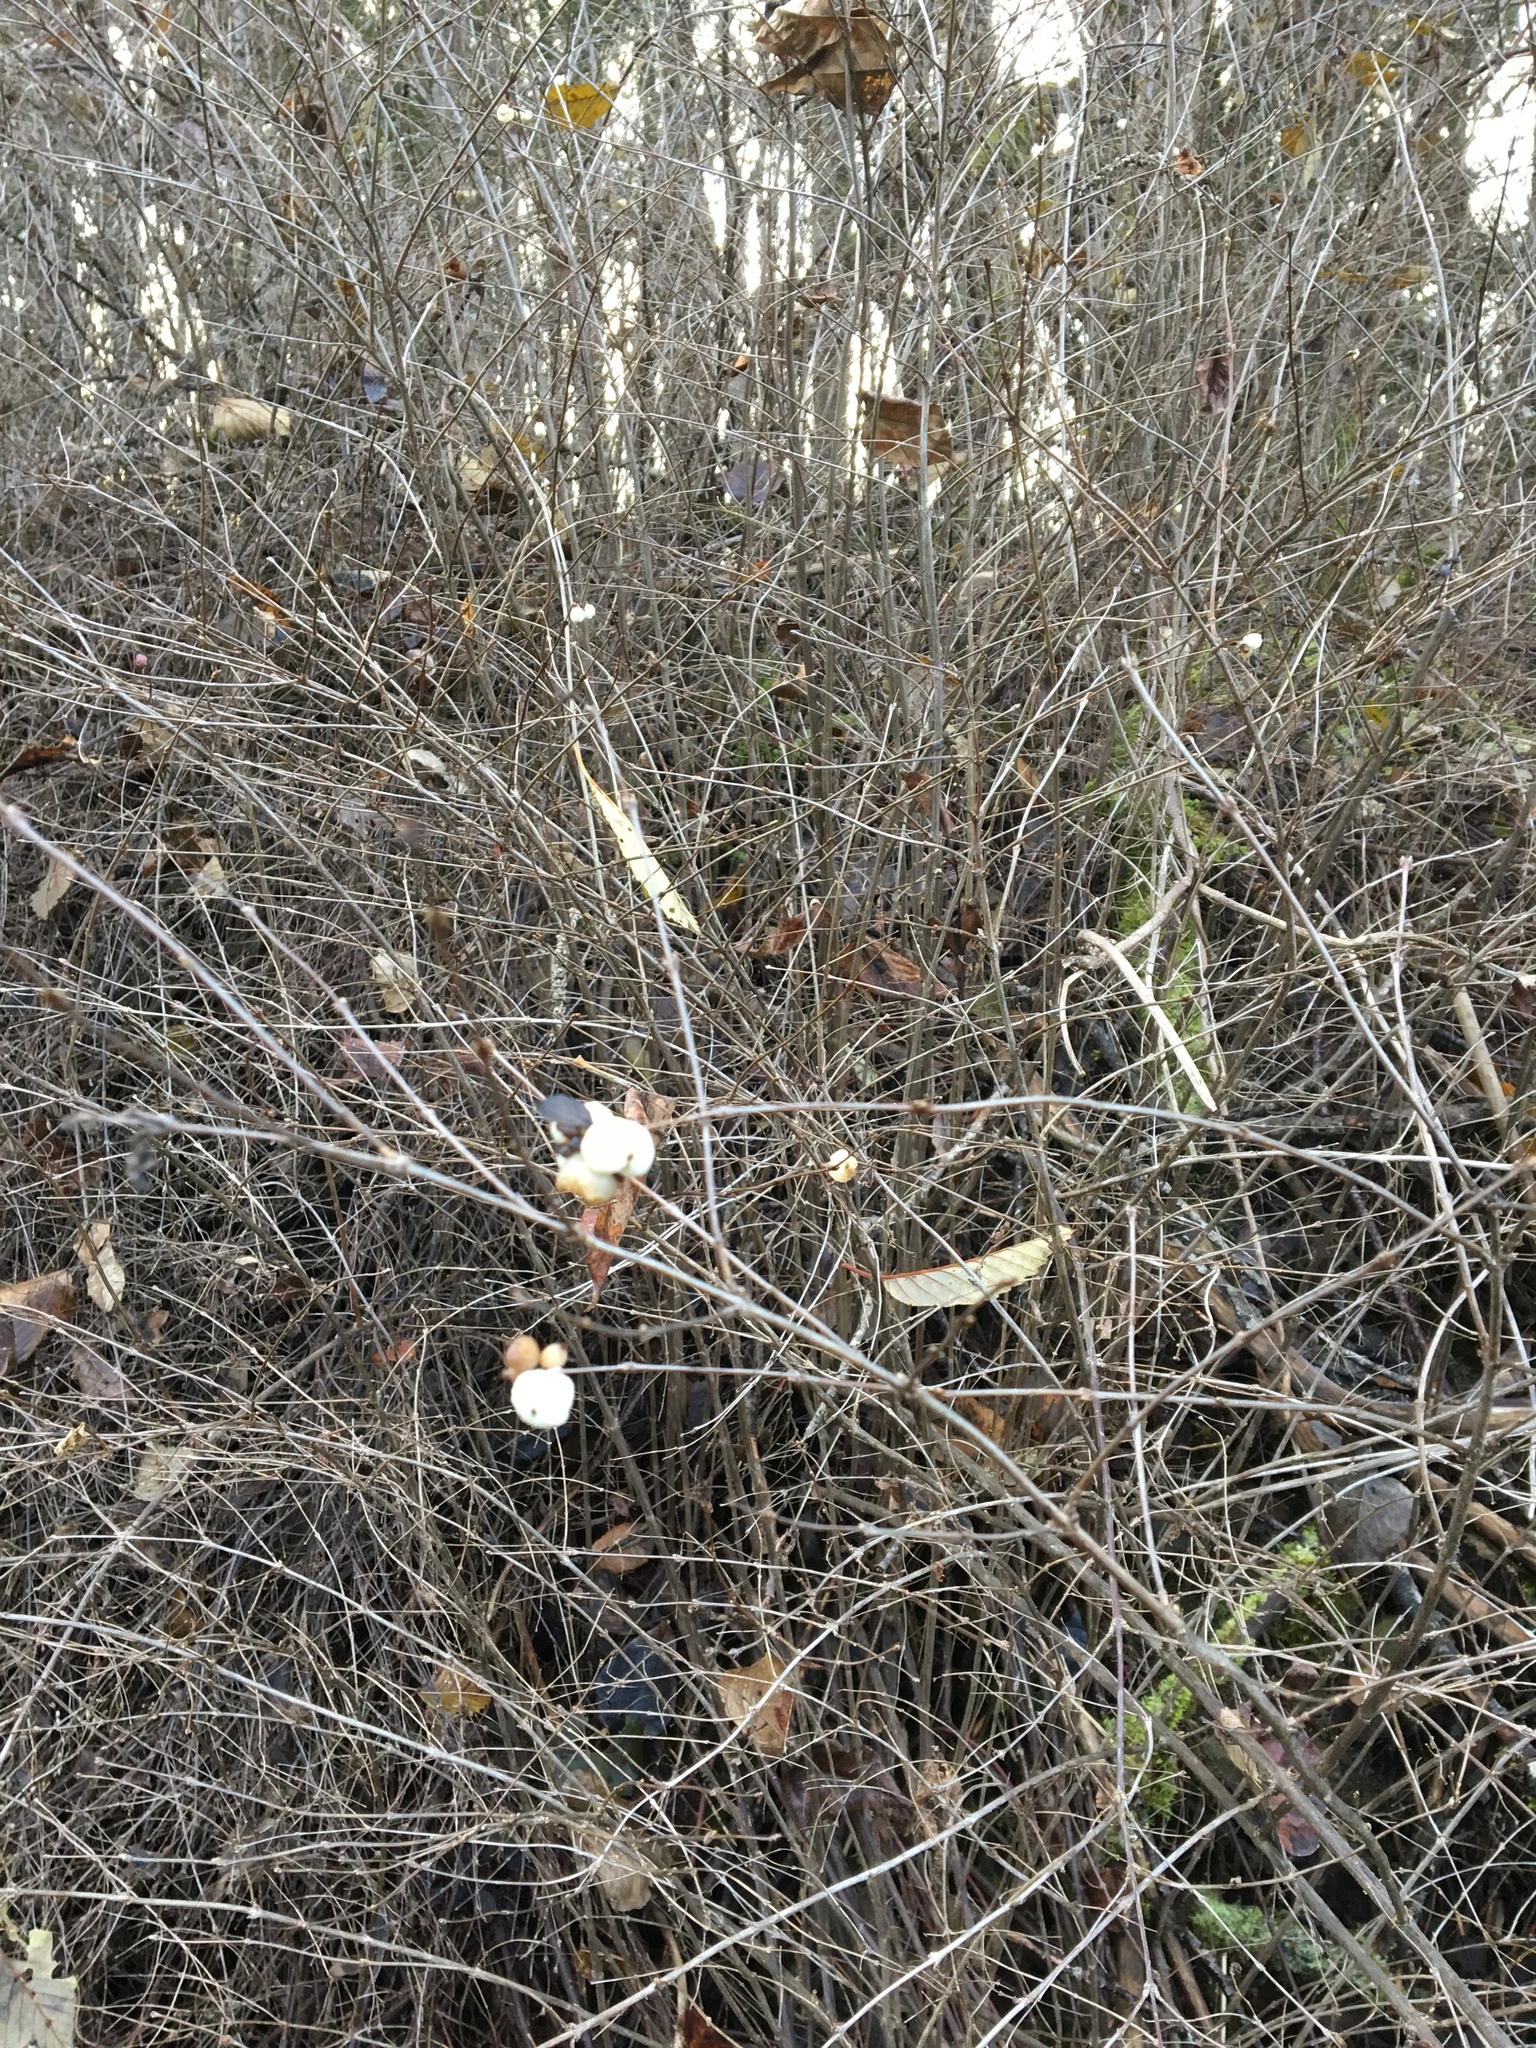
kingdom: Plantae
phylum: Tracheophyta
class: Magnoliopsida
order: Dipsacales
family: Caprifoliaceae
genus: Symphoricarpos
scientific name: Symphoricarpos albus
